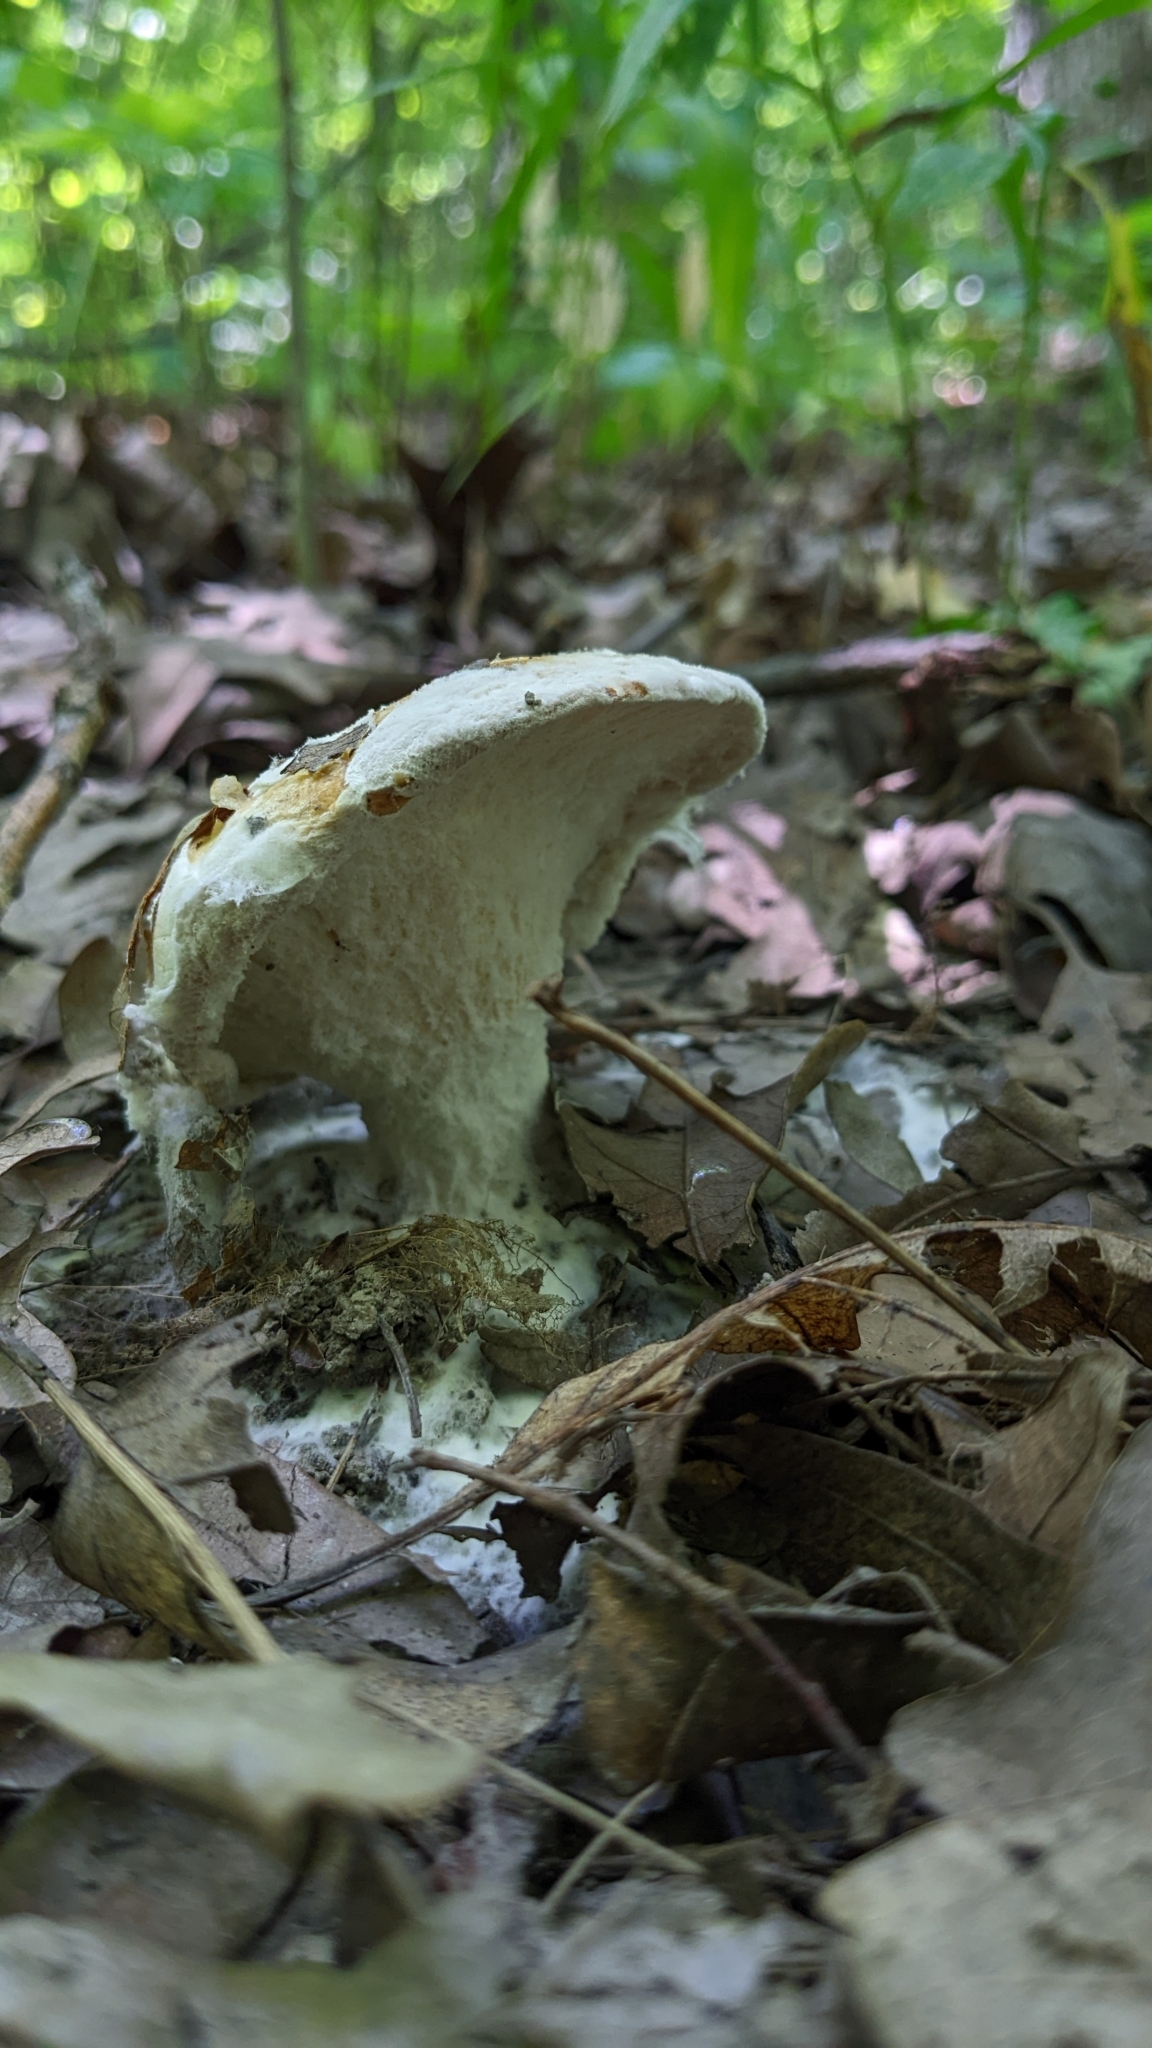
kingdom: Fungi
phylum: Ascomycota
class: Sordariomycetes
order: Hypocreales
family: Hypocreaceae
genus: Hypomyces
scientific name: Hypomyces australis
